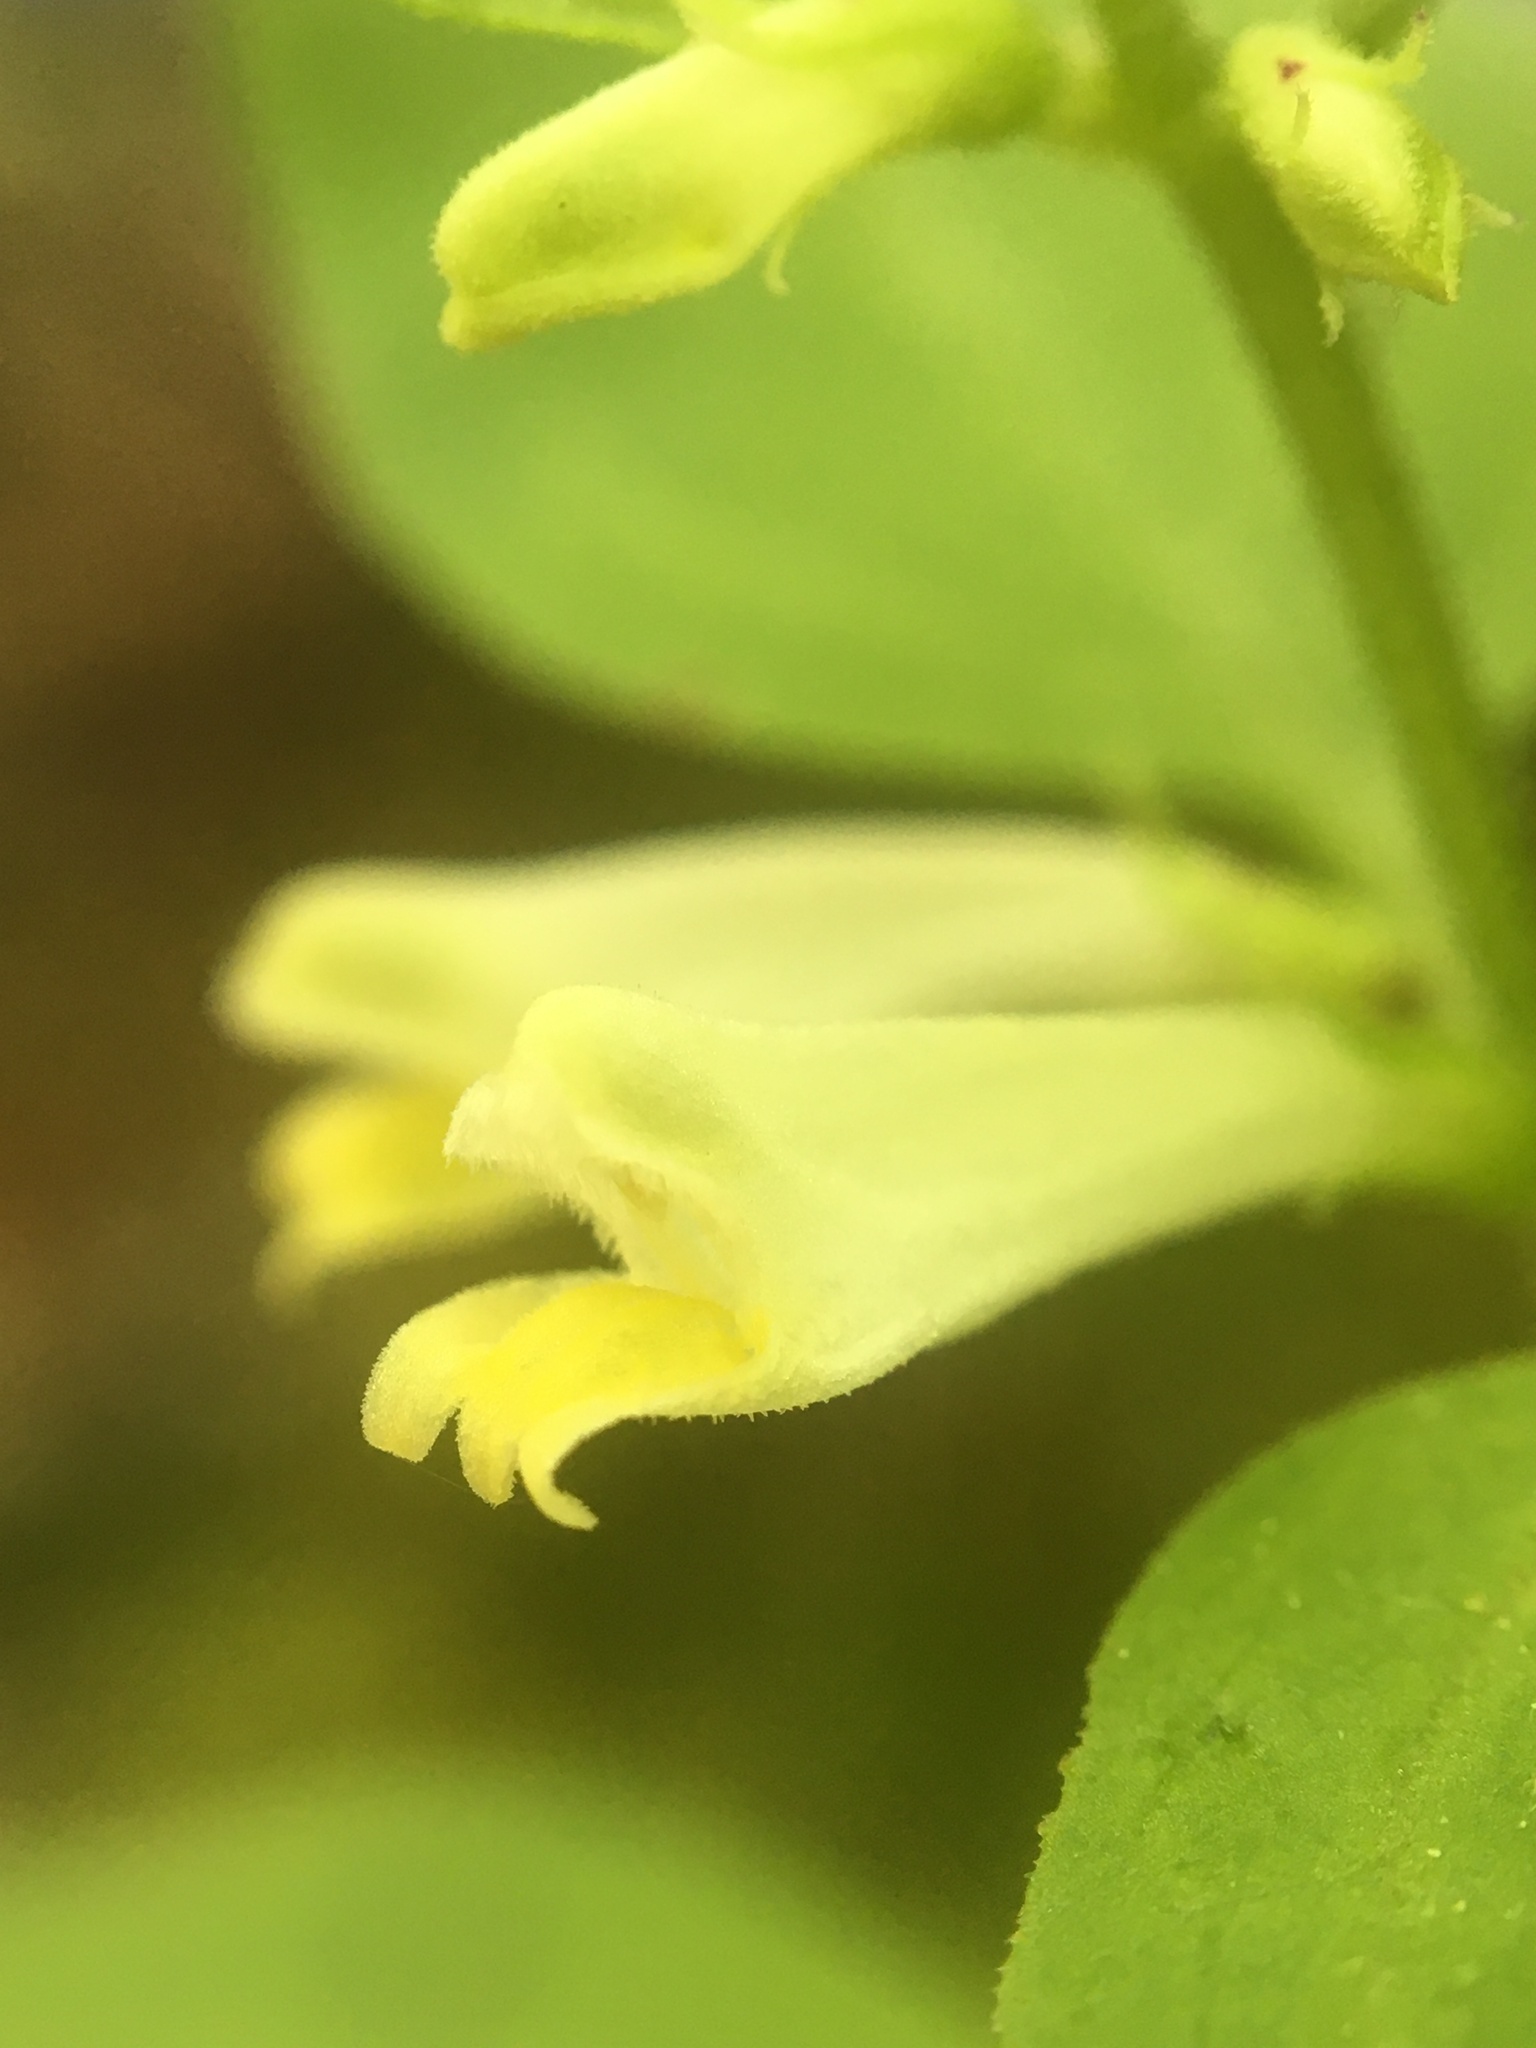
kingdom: Plantae
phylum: Tracheophyta
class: Magnoliopsida
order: Lamiales
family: Orobanchaceae
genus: Melampyrum
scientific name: Melampyrum lineare
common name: American cow-wheat
